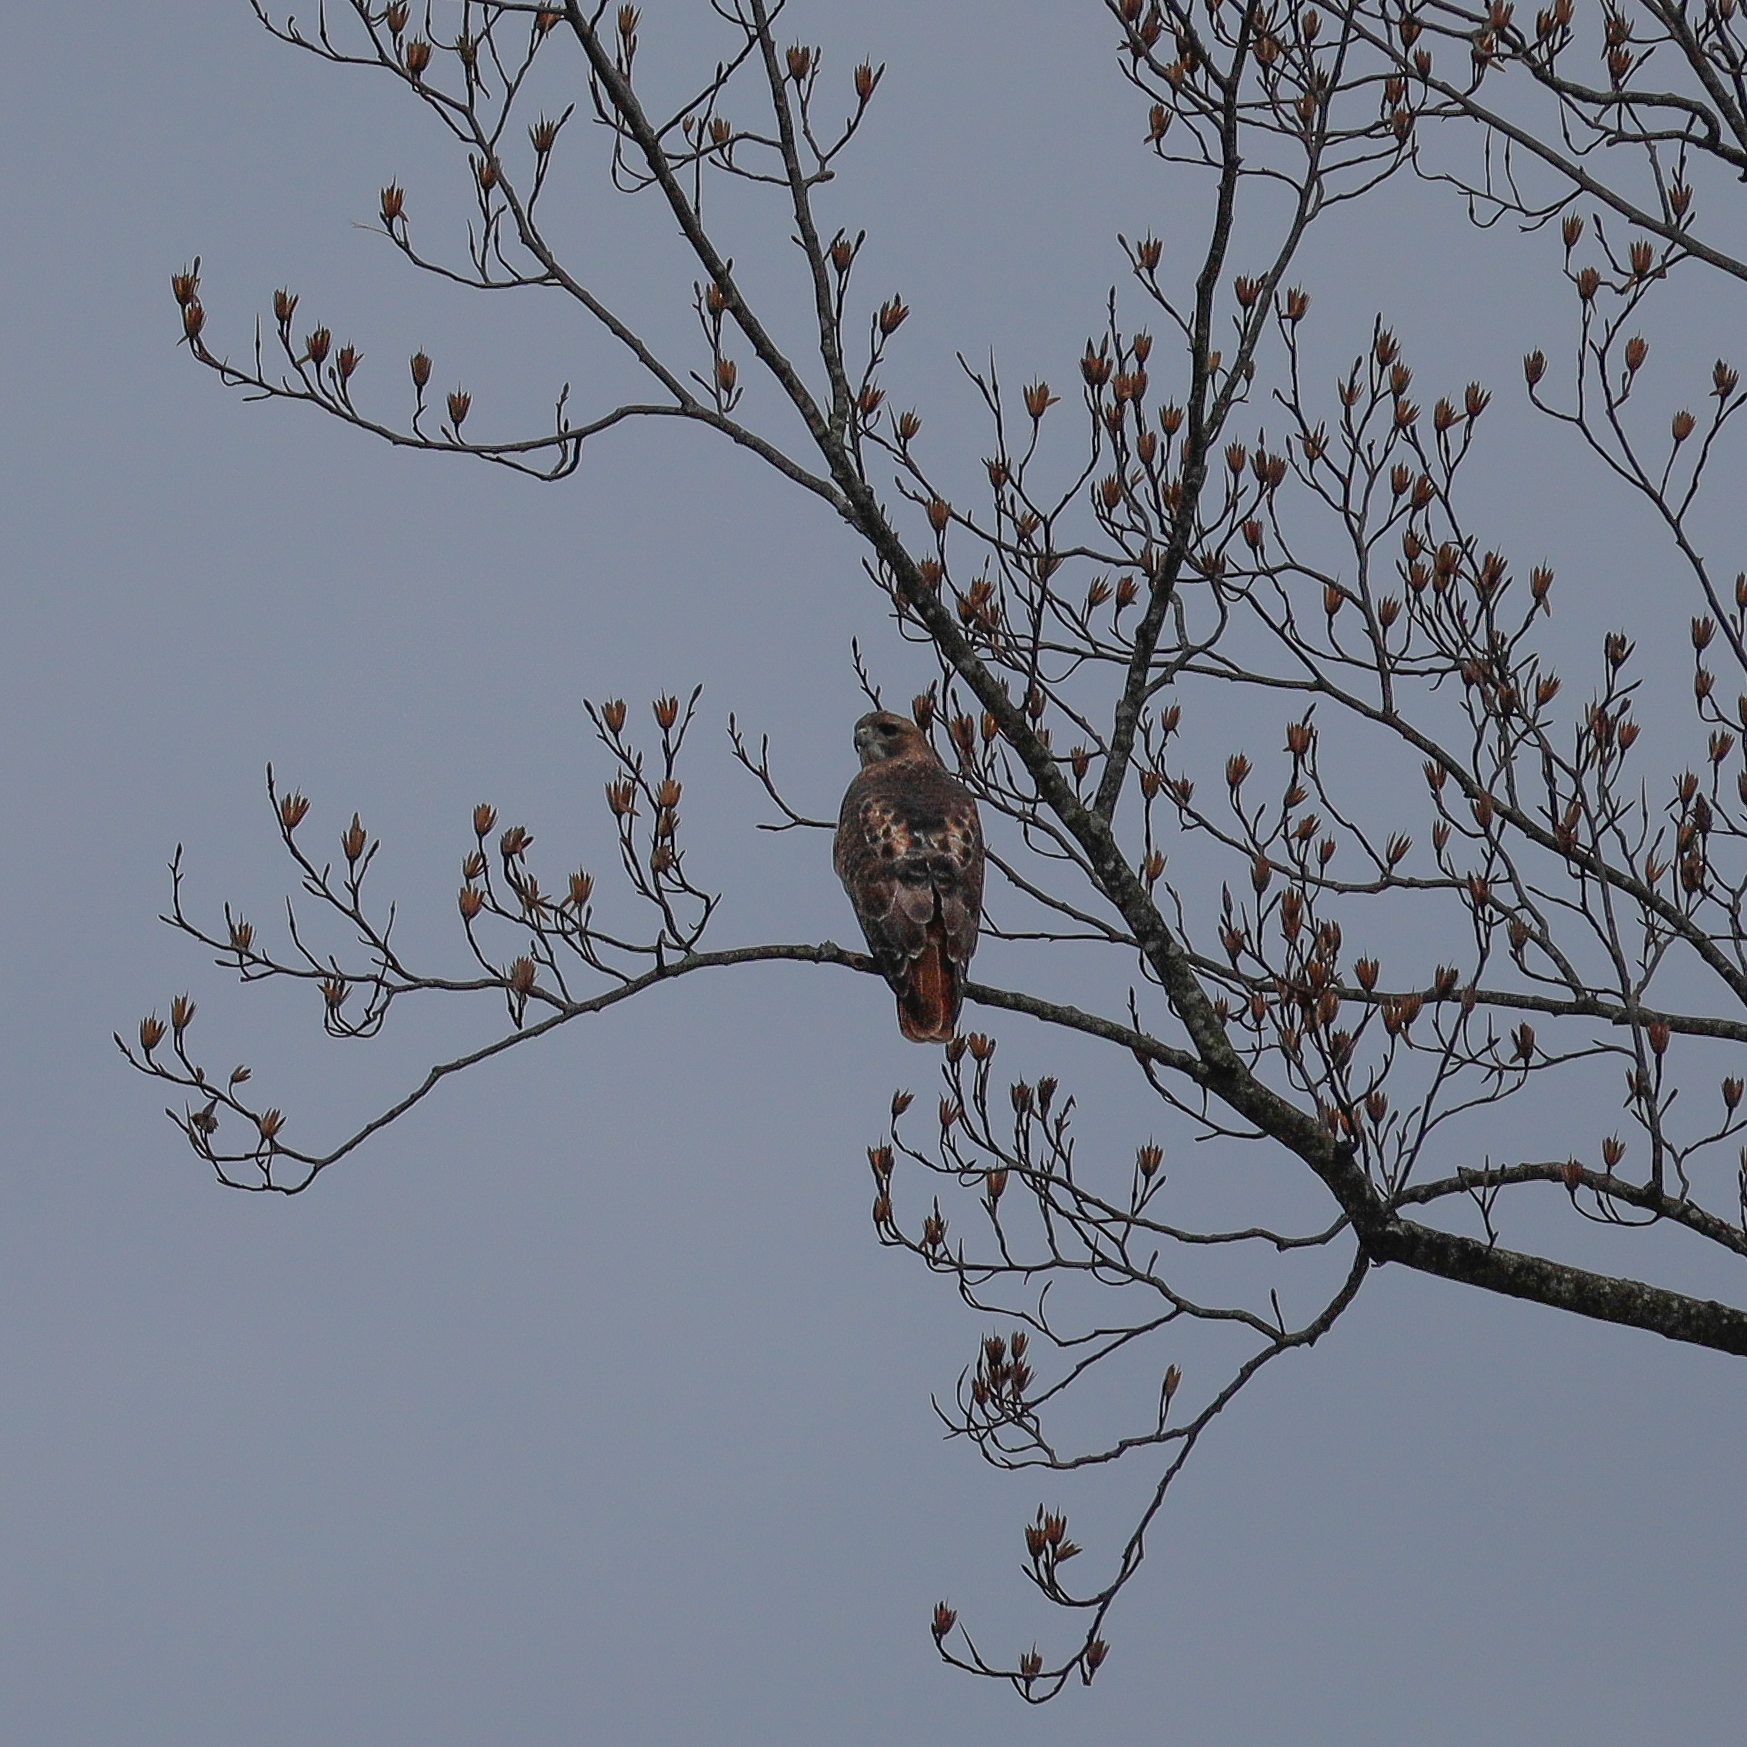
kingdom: Animalia
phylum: Chordata
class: Aves
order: Accipitriformes
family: Accipitridae
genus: Buteo
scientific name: Buteo jamaicensis
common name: Red-tailed hawk
